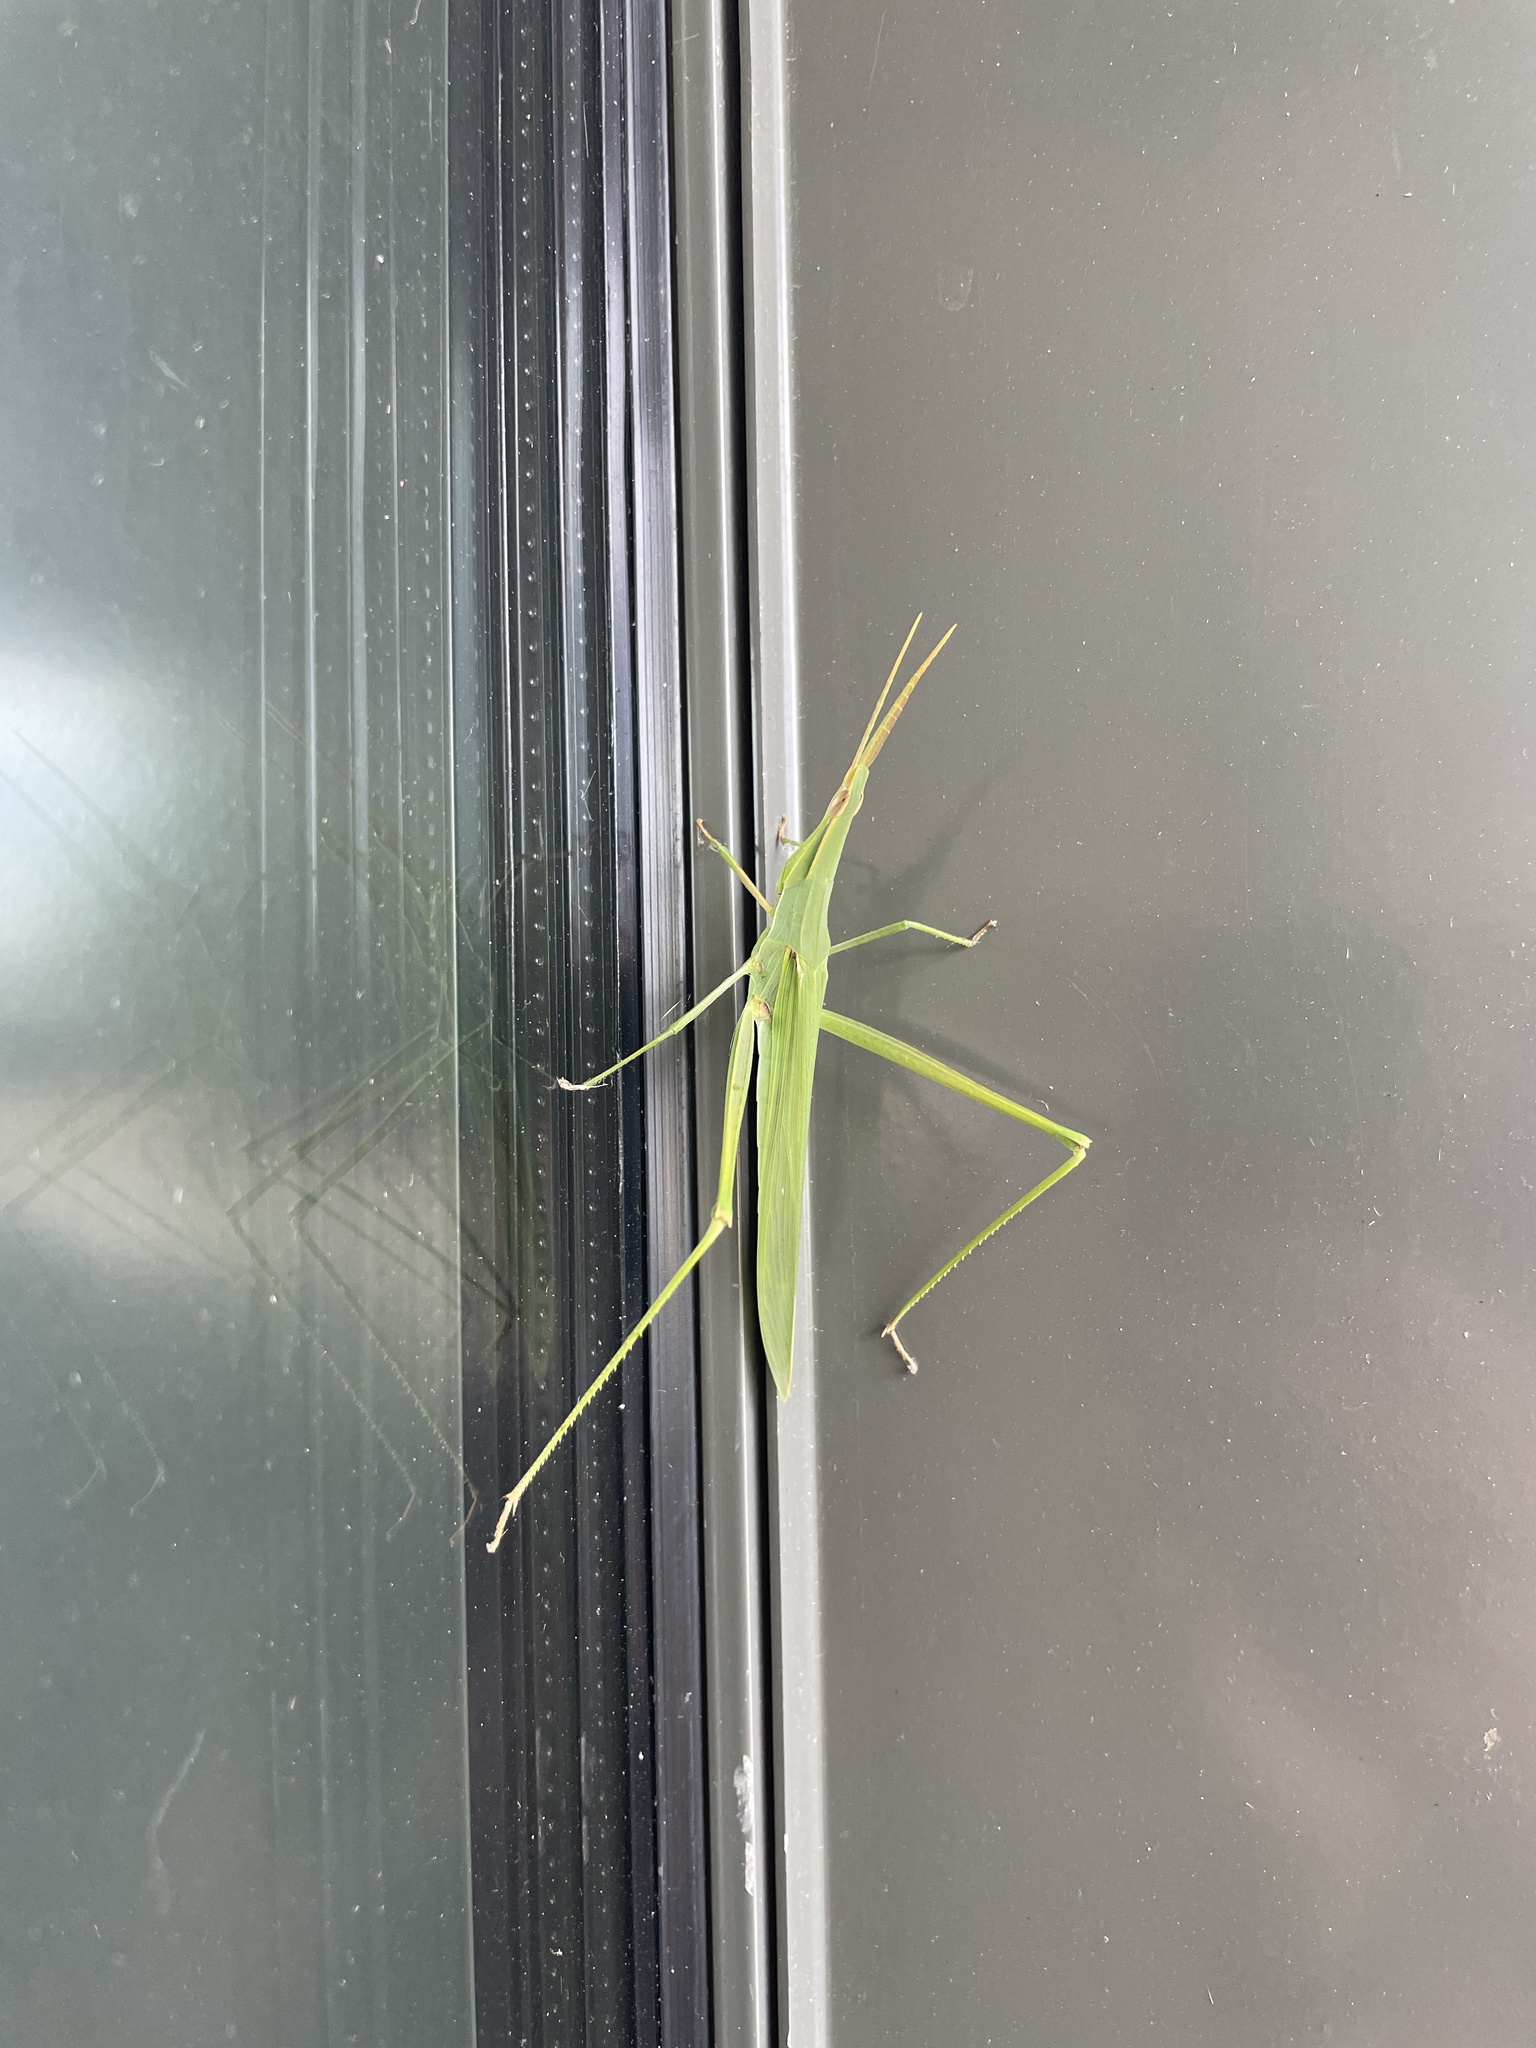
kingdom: Animalia
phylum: Arthropoda
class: Insecta
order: Orthoptera
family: Acrididae
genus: Acrida
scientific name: Acrida conica
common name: Giant green slantface
